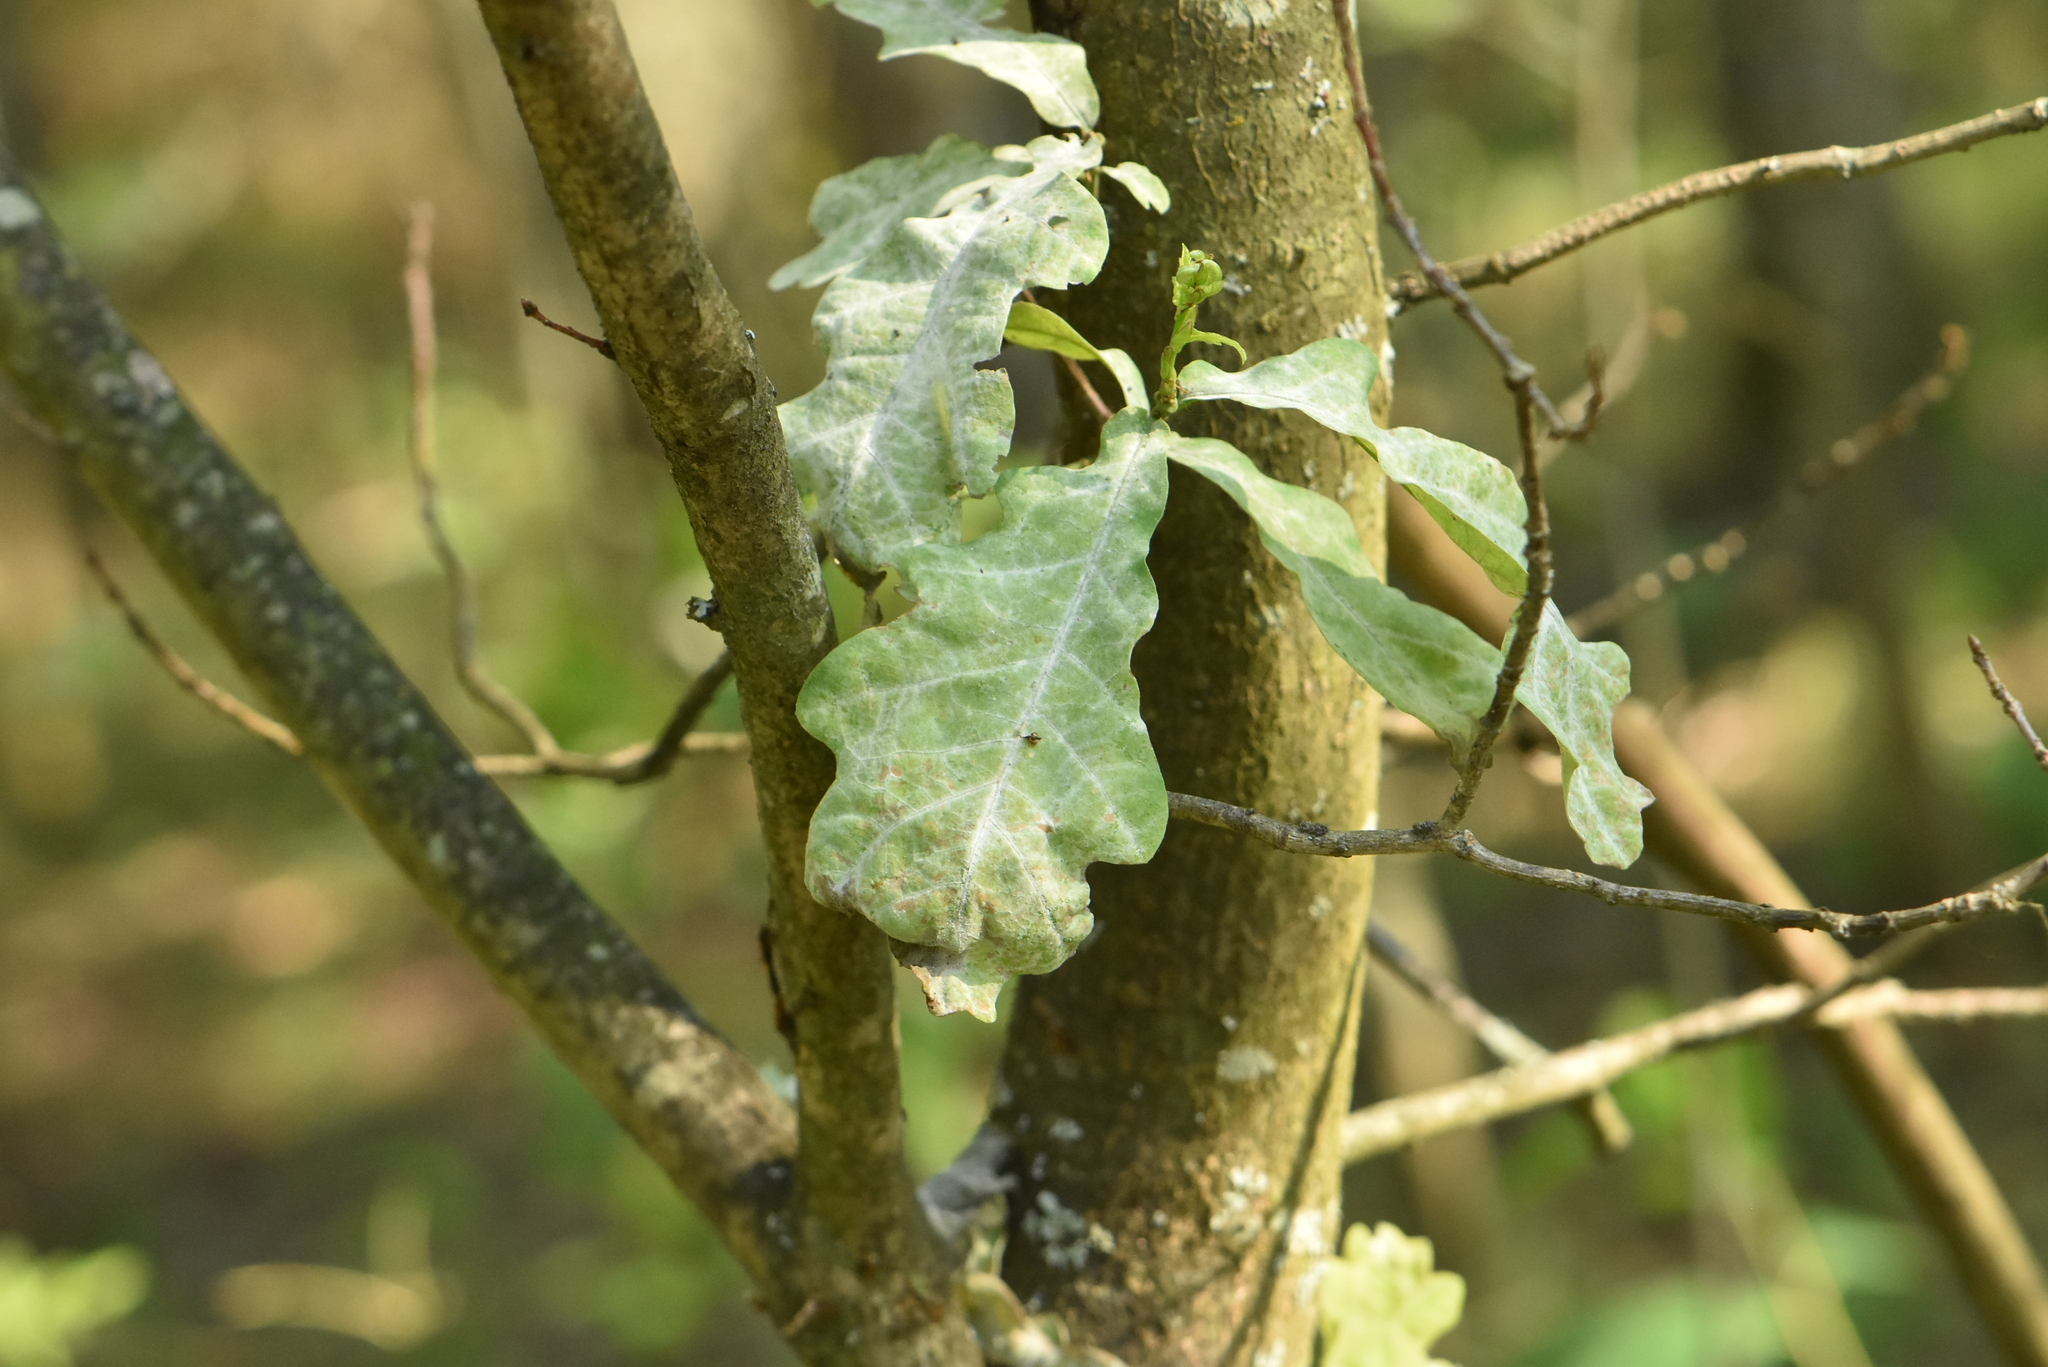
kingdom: Plantae
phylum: Tracheophyta
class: Magnoliopsida
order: Fagales
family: Fagaceae
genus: Quercus
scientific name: Quercus robur
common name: Pedunculate oak
